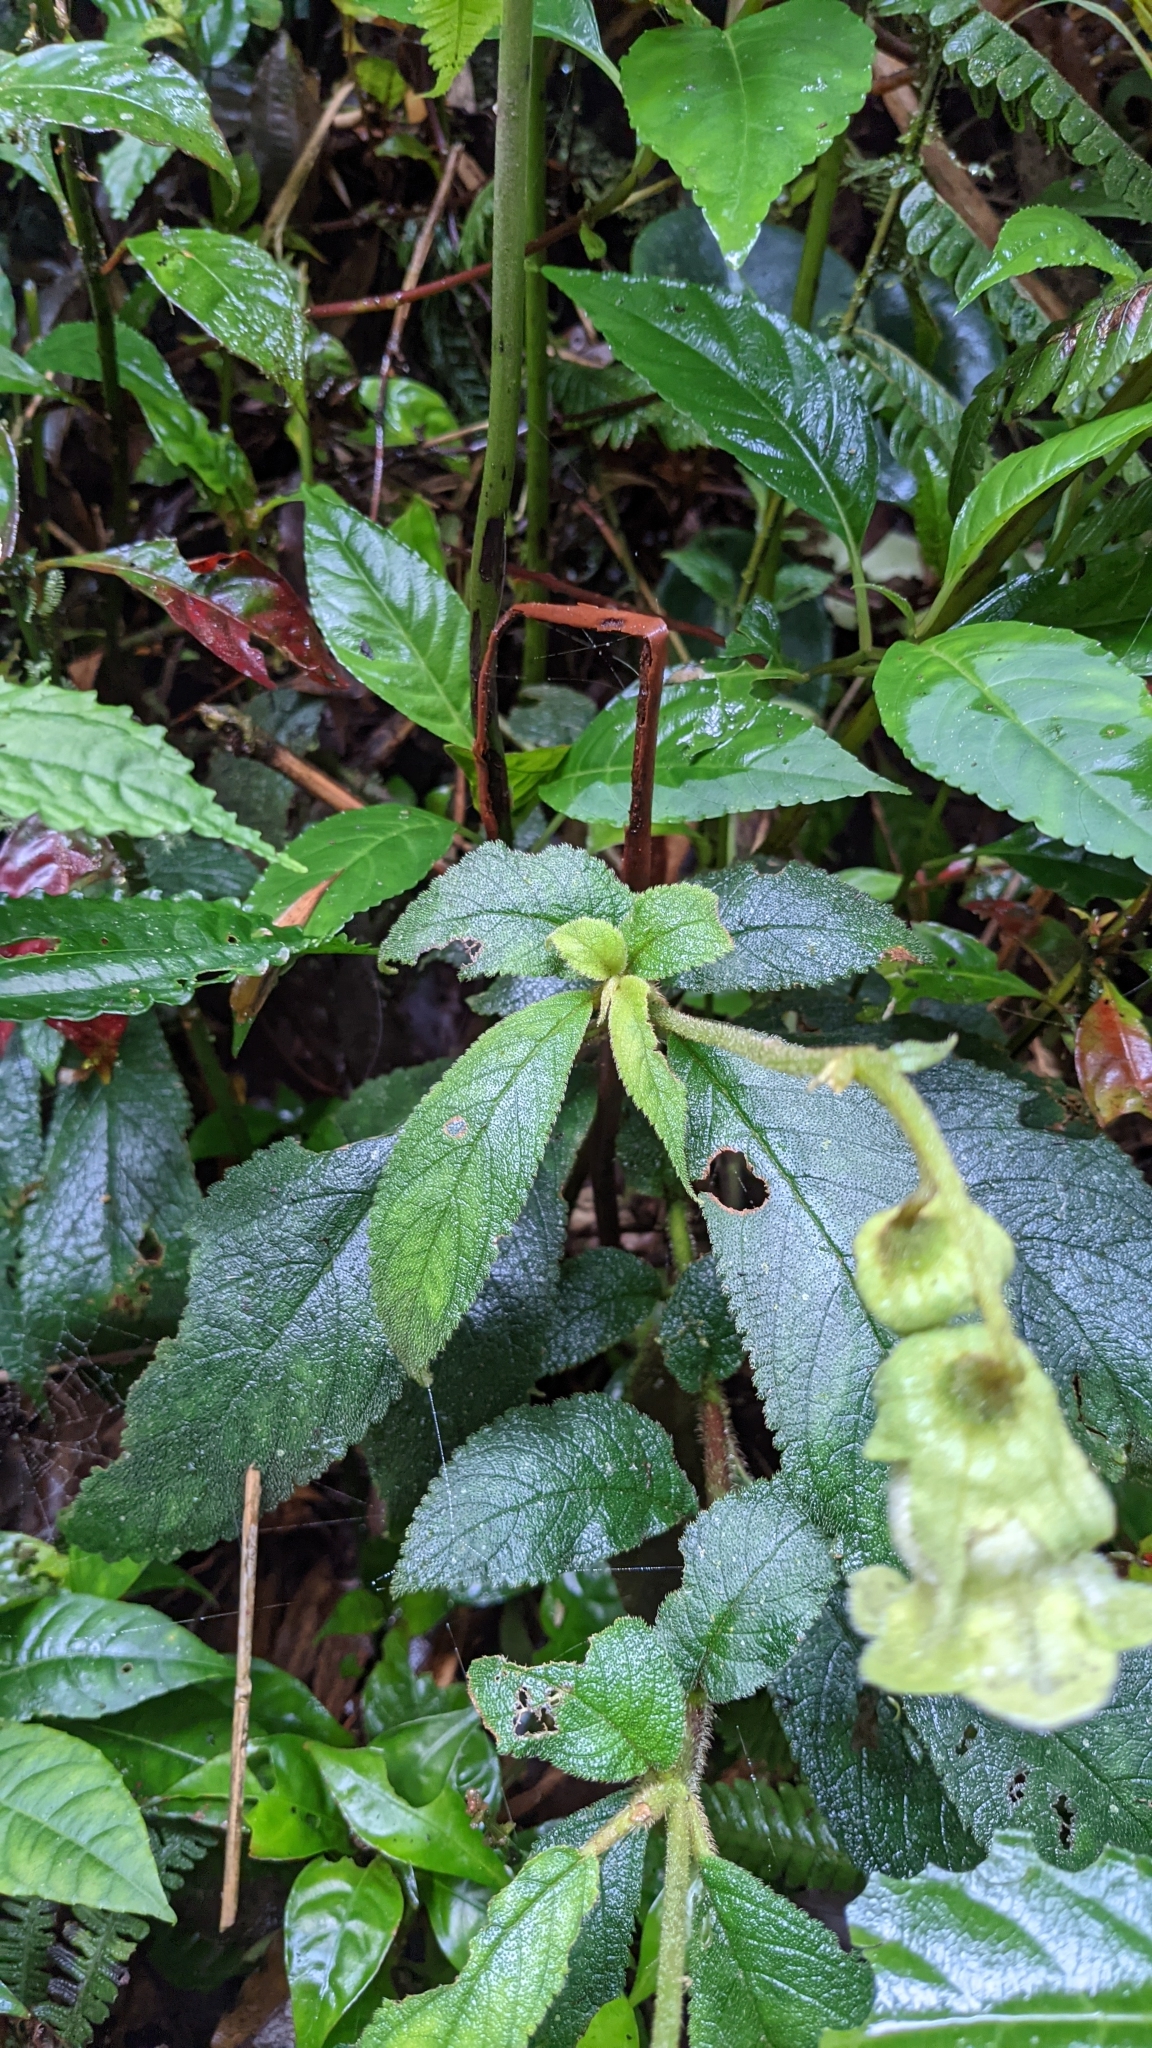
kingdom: Plantae
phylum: Tracheophyta
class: Magnoliopsida
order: Lamiales
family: Gesneriaceae
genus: Kohleria
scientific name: Kohleria tigridia
